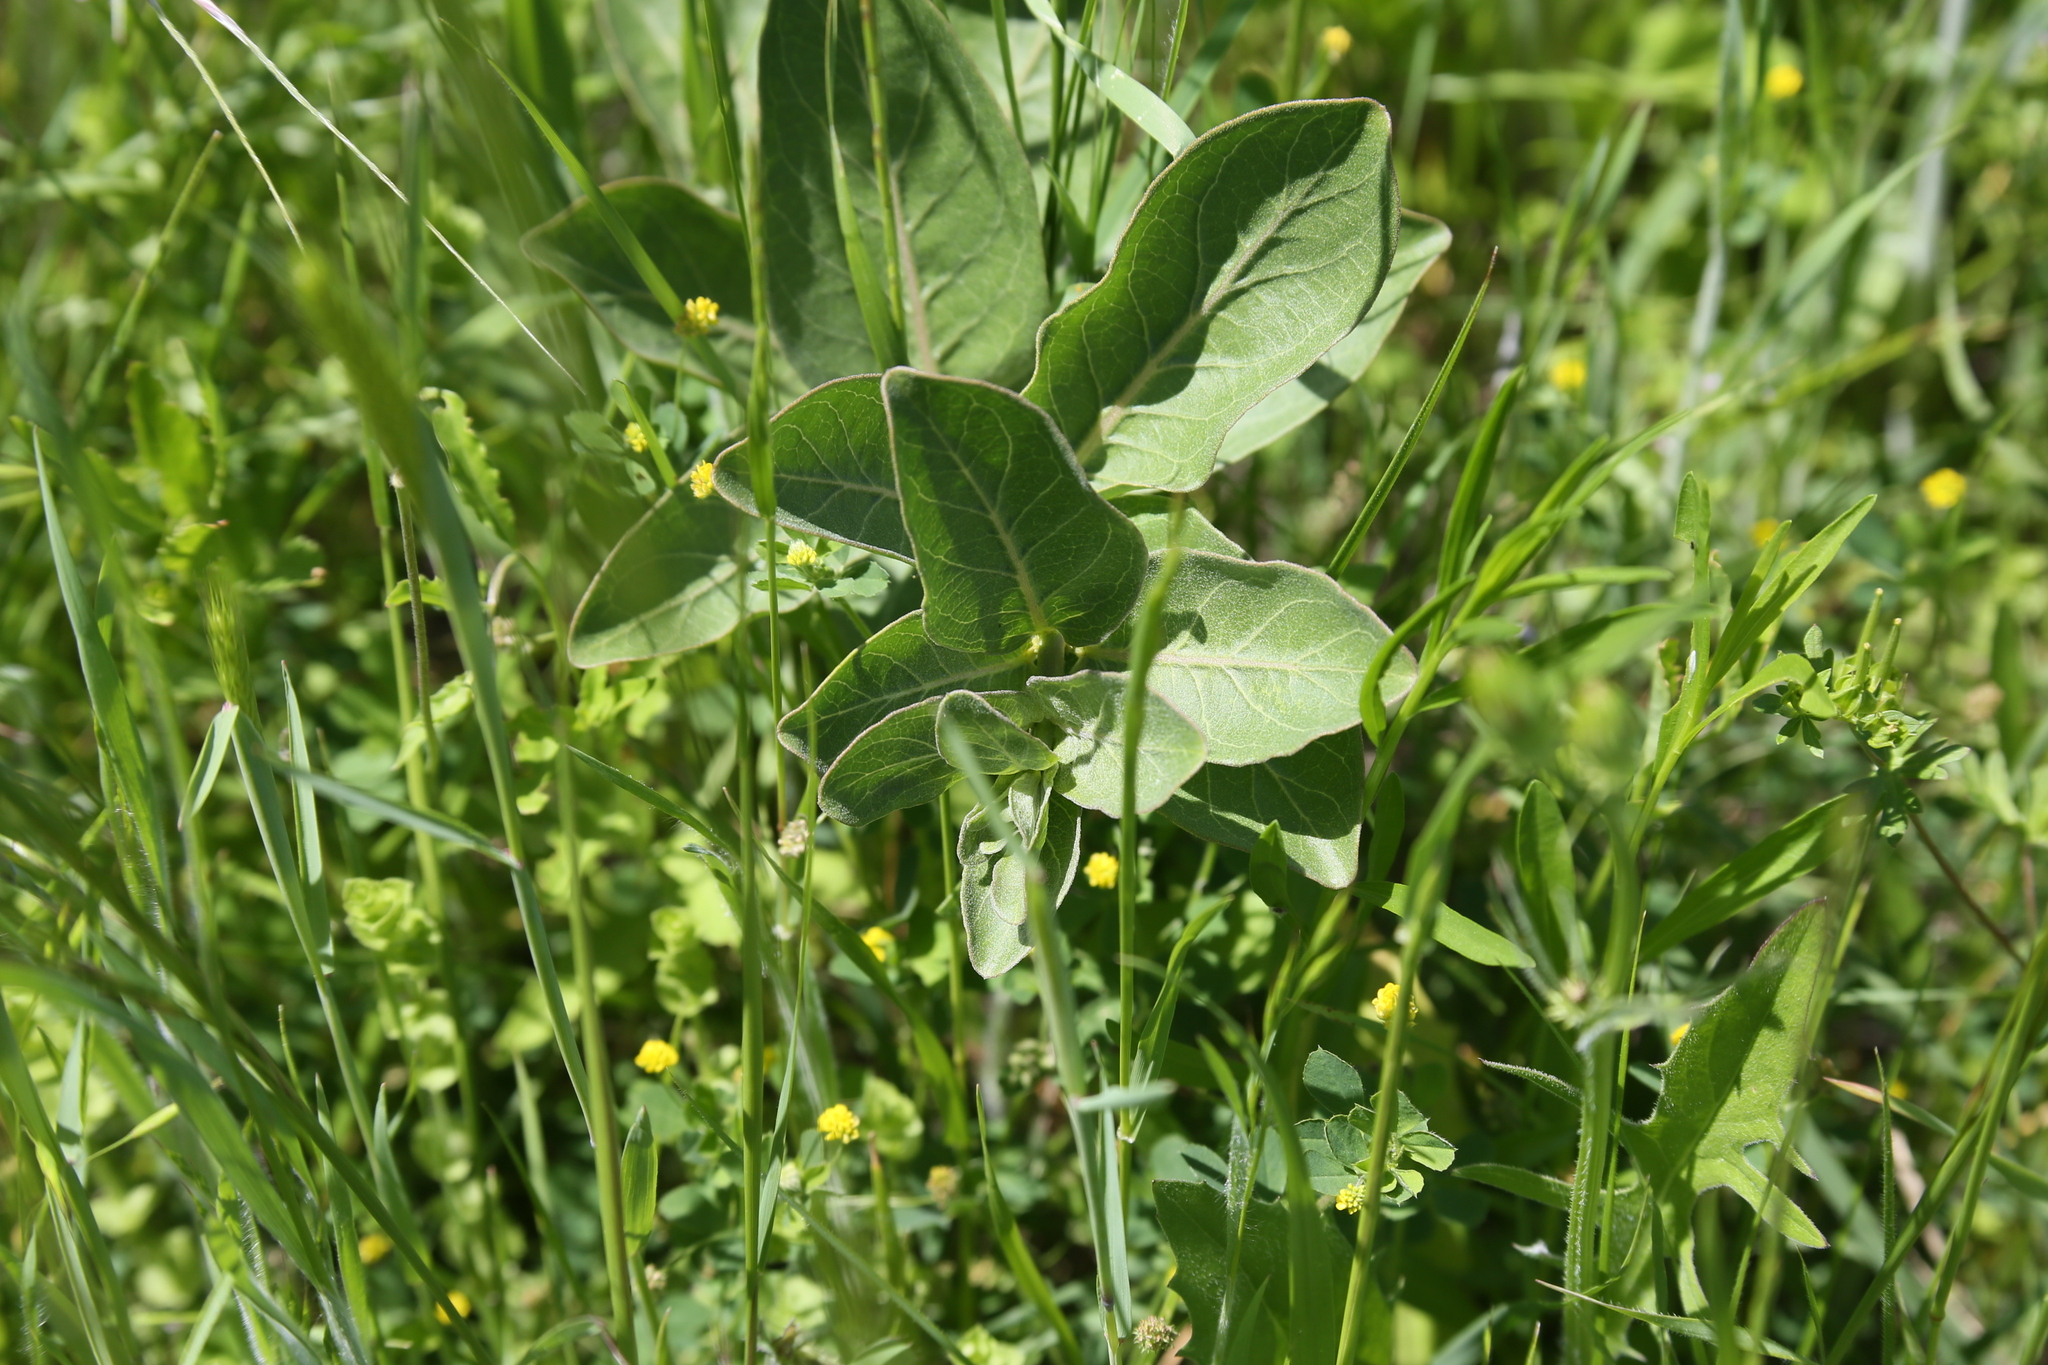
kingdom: Plantae
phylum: Tracheophyta
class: Magnoliopsida
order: Gentianales
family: Apocynaceae
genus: Asclepias
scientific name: Asclepias viridis
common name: Antelope-horns
